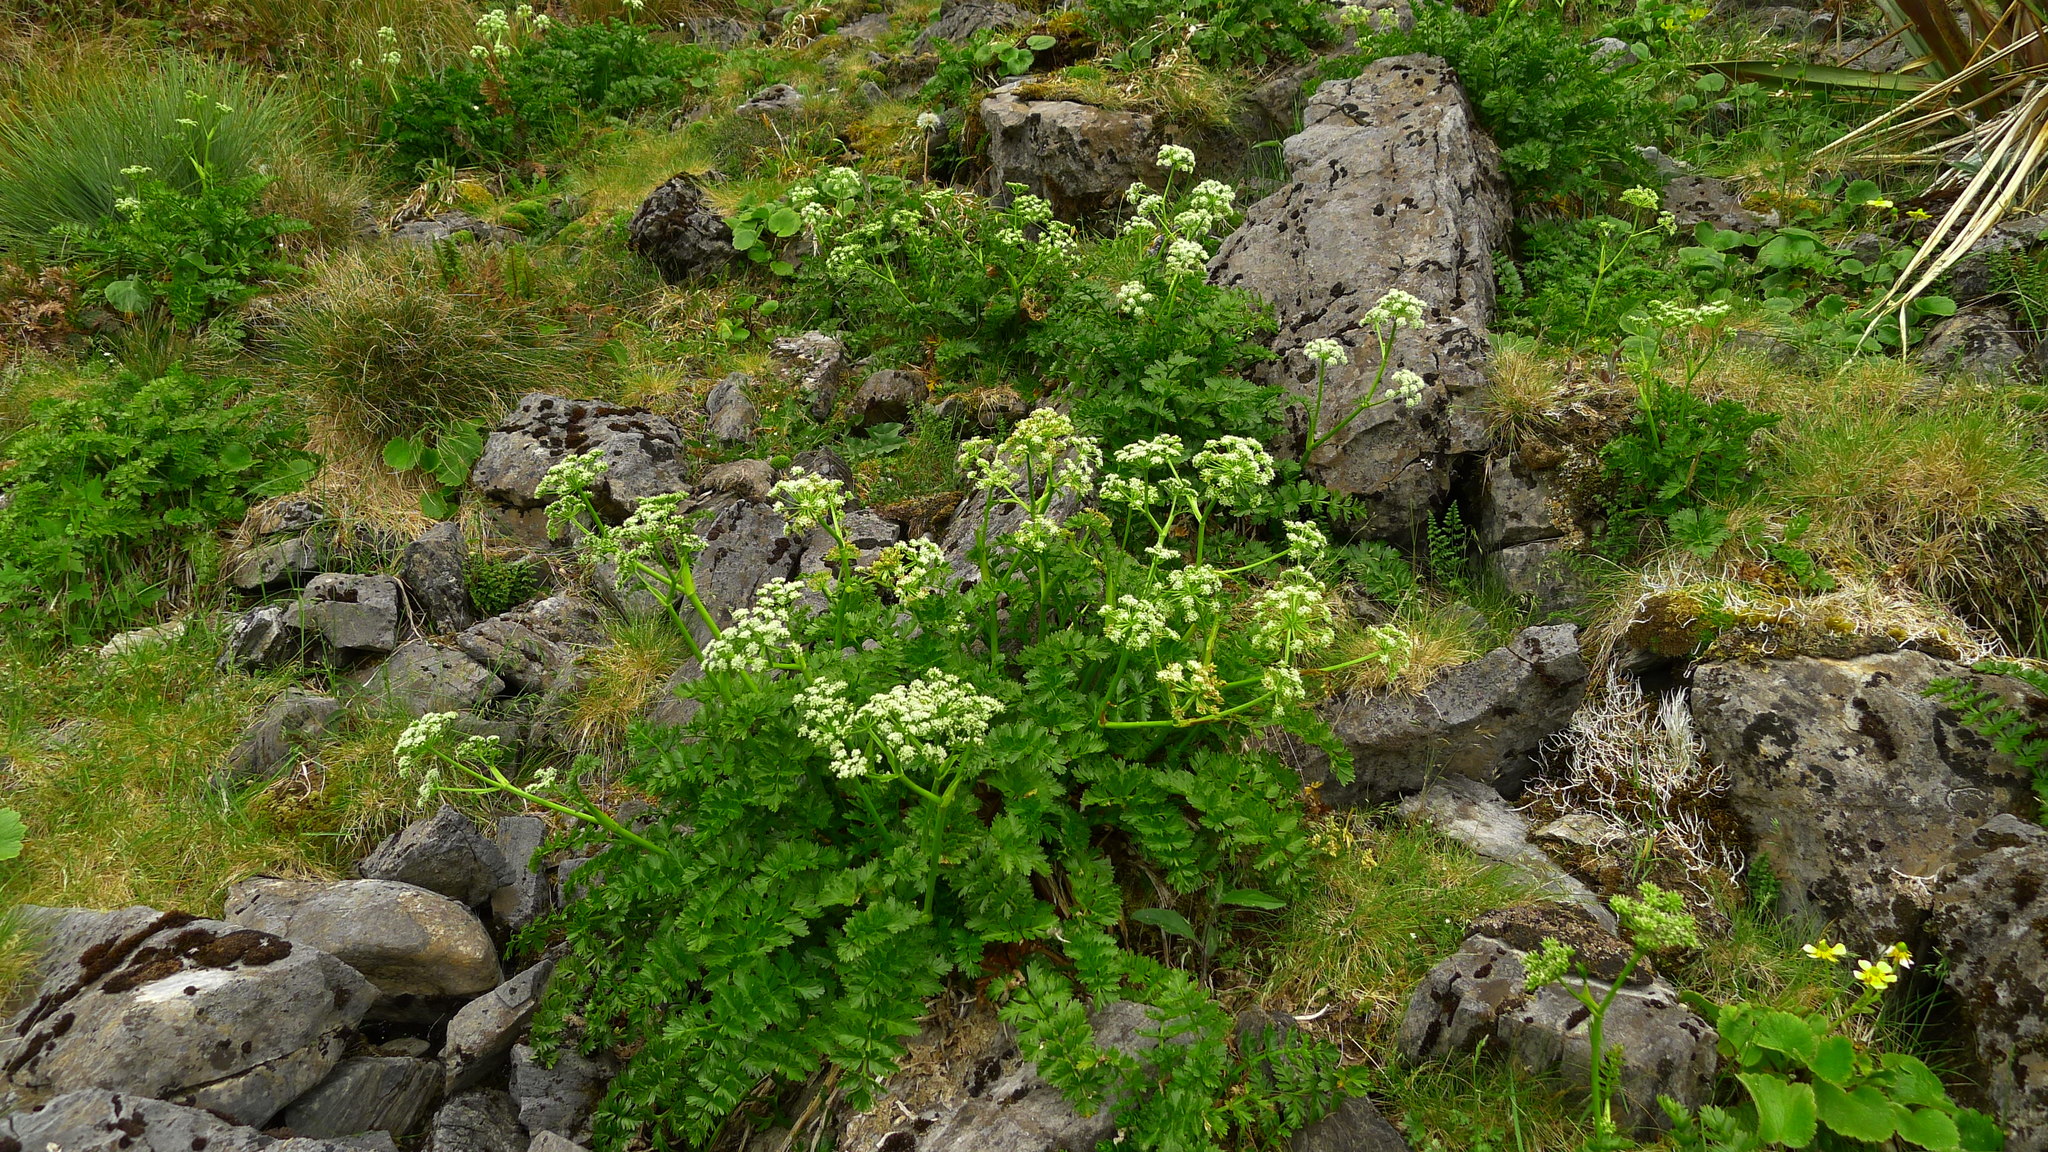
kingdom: Plantae
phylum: Tracheophyta
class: Magnoliopsida
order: Apiales
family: Apiaceae
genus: Anisotome
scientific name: Anisotome pilifera
